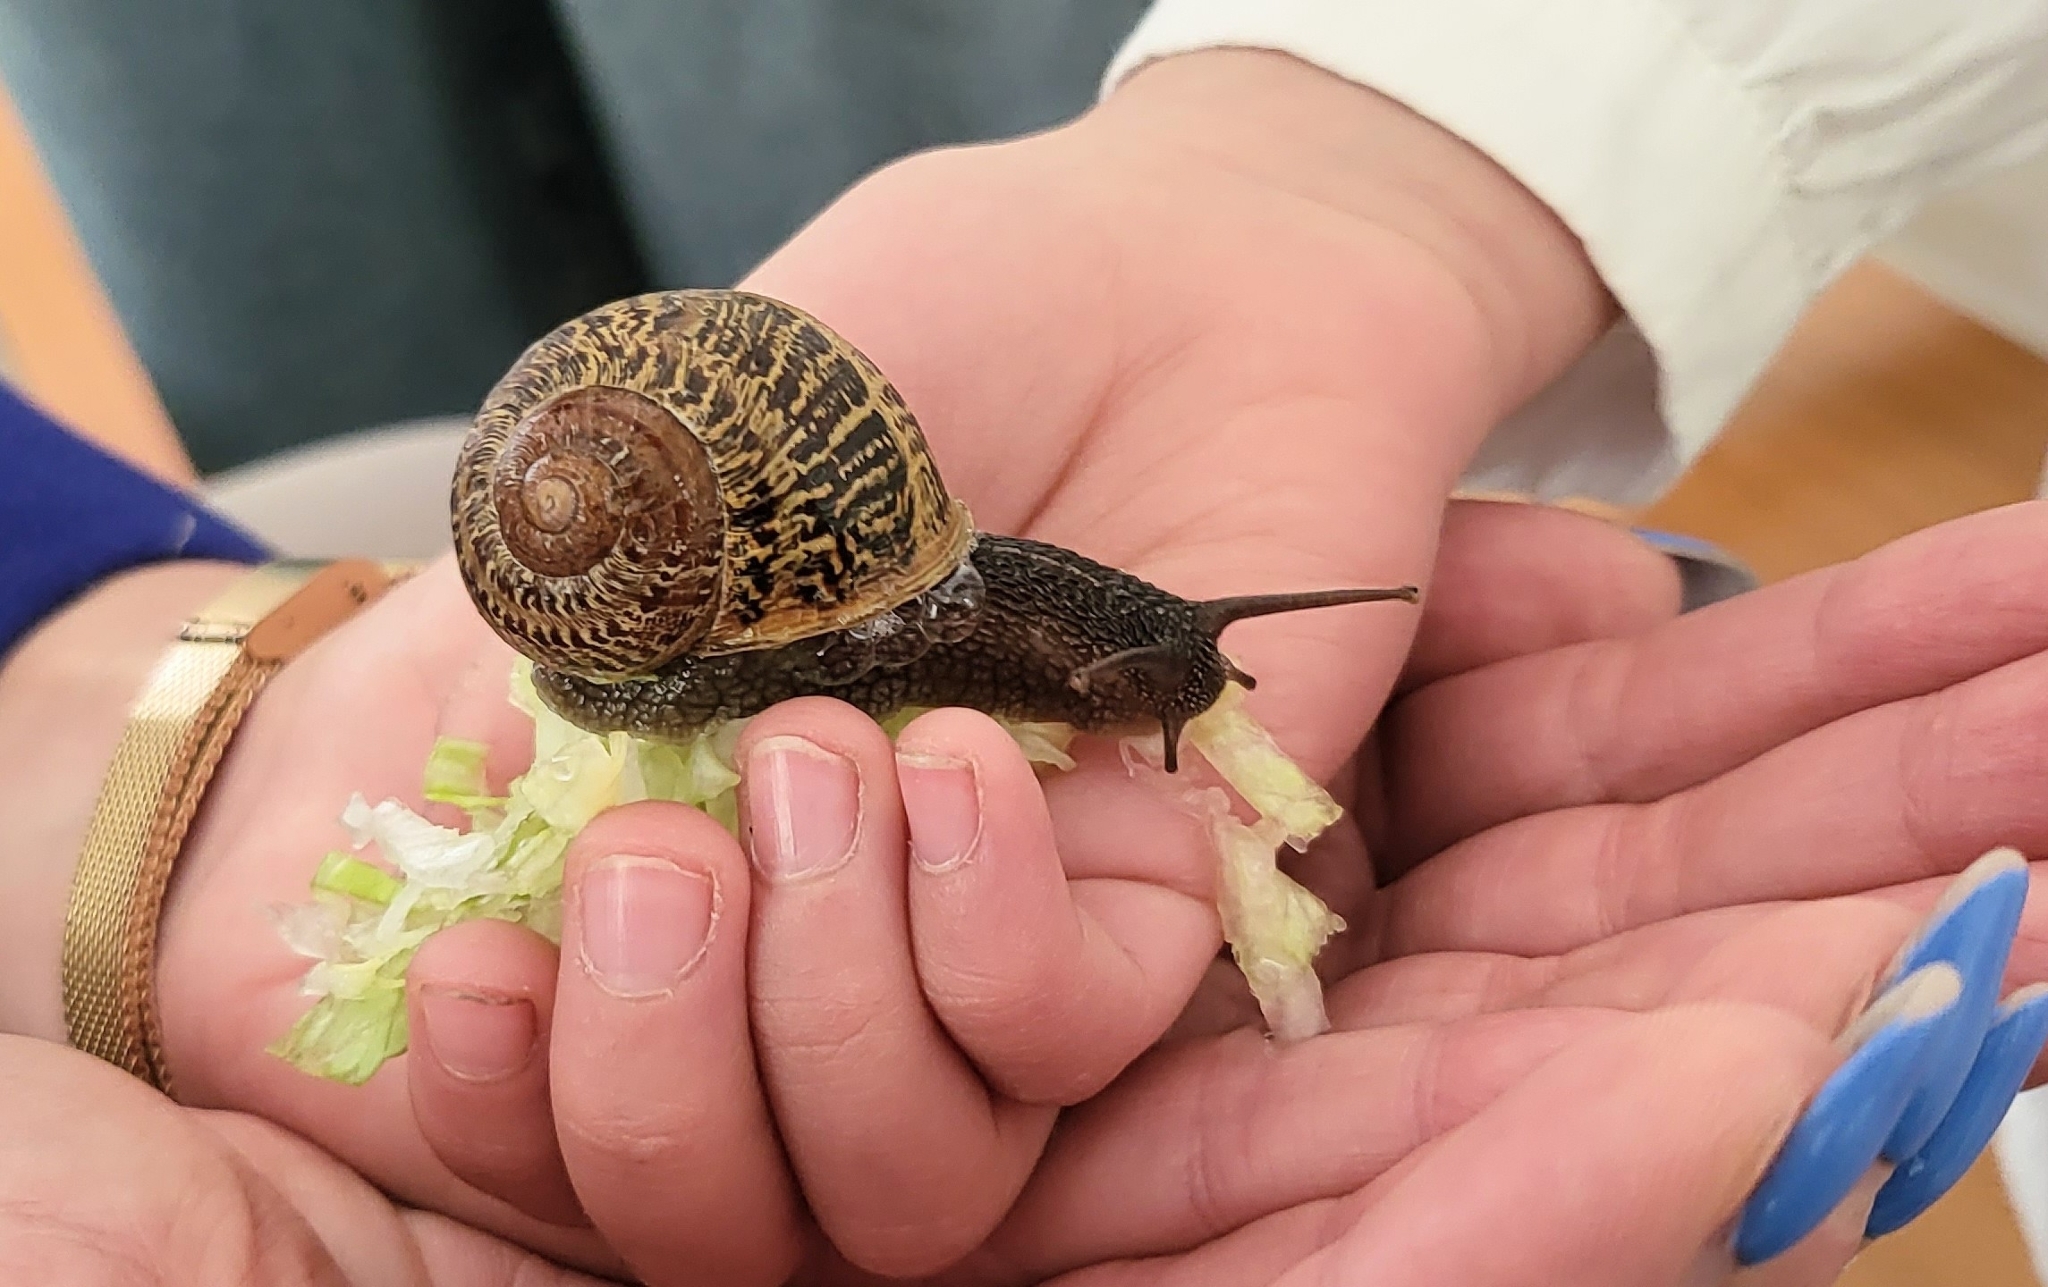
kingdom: Animalia
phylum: Mollusca
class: Gastropoda
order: Stylommatophora
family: Helicidae
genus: Cornu
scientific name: Cornu aspersum
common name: Brown garden snail
